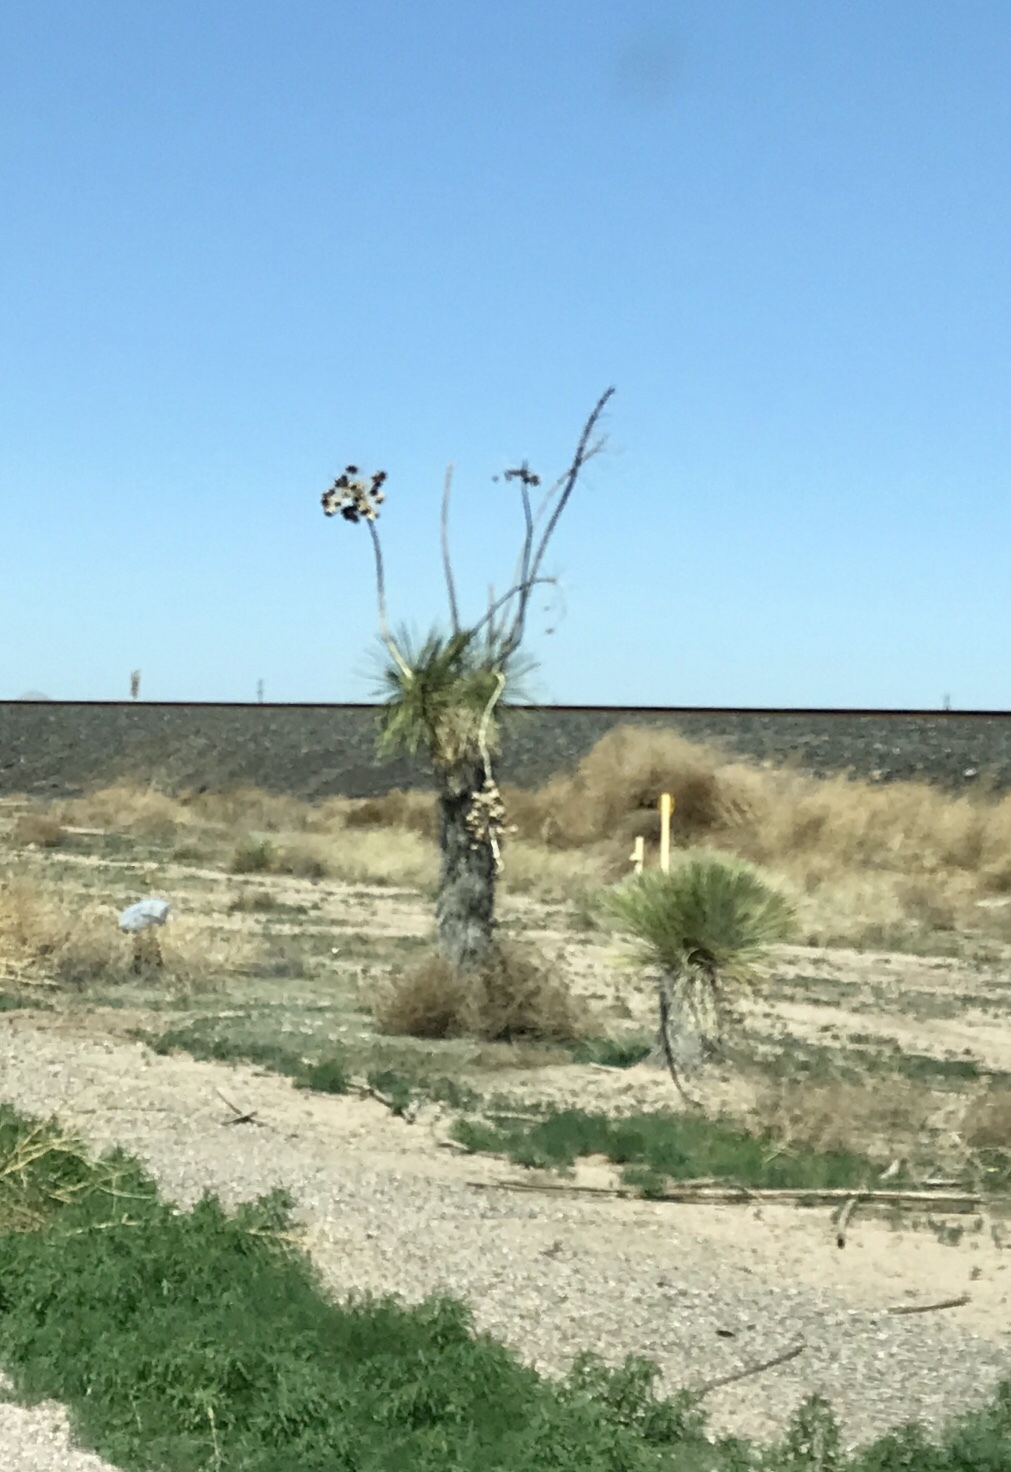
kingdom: Plantae
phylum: Tracheophyta
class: Liliopsida
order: Asparagales
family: Asparagaceae
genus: Yucca
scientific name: Yucca elata
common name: Palmella
